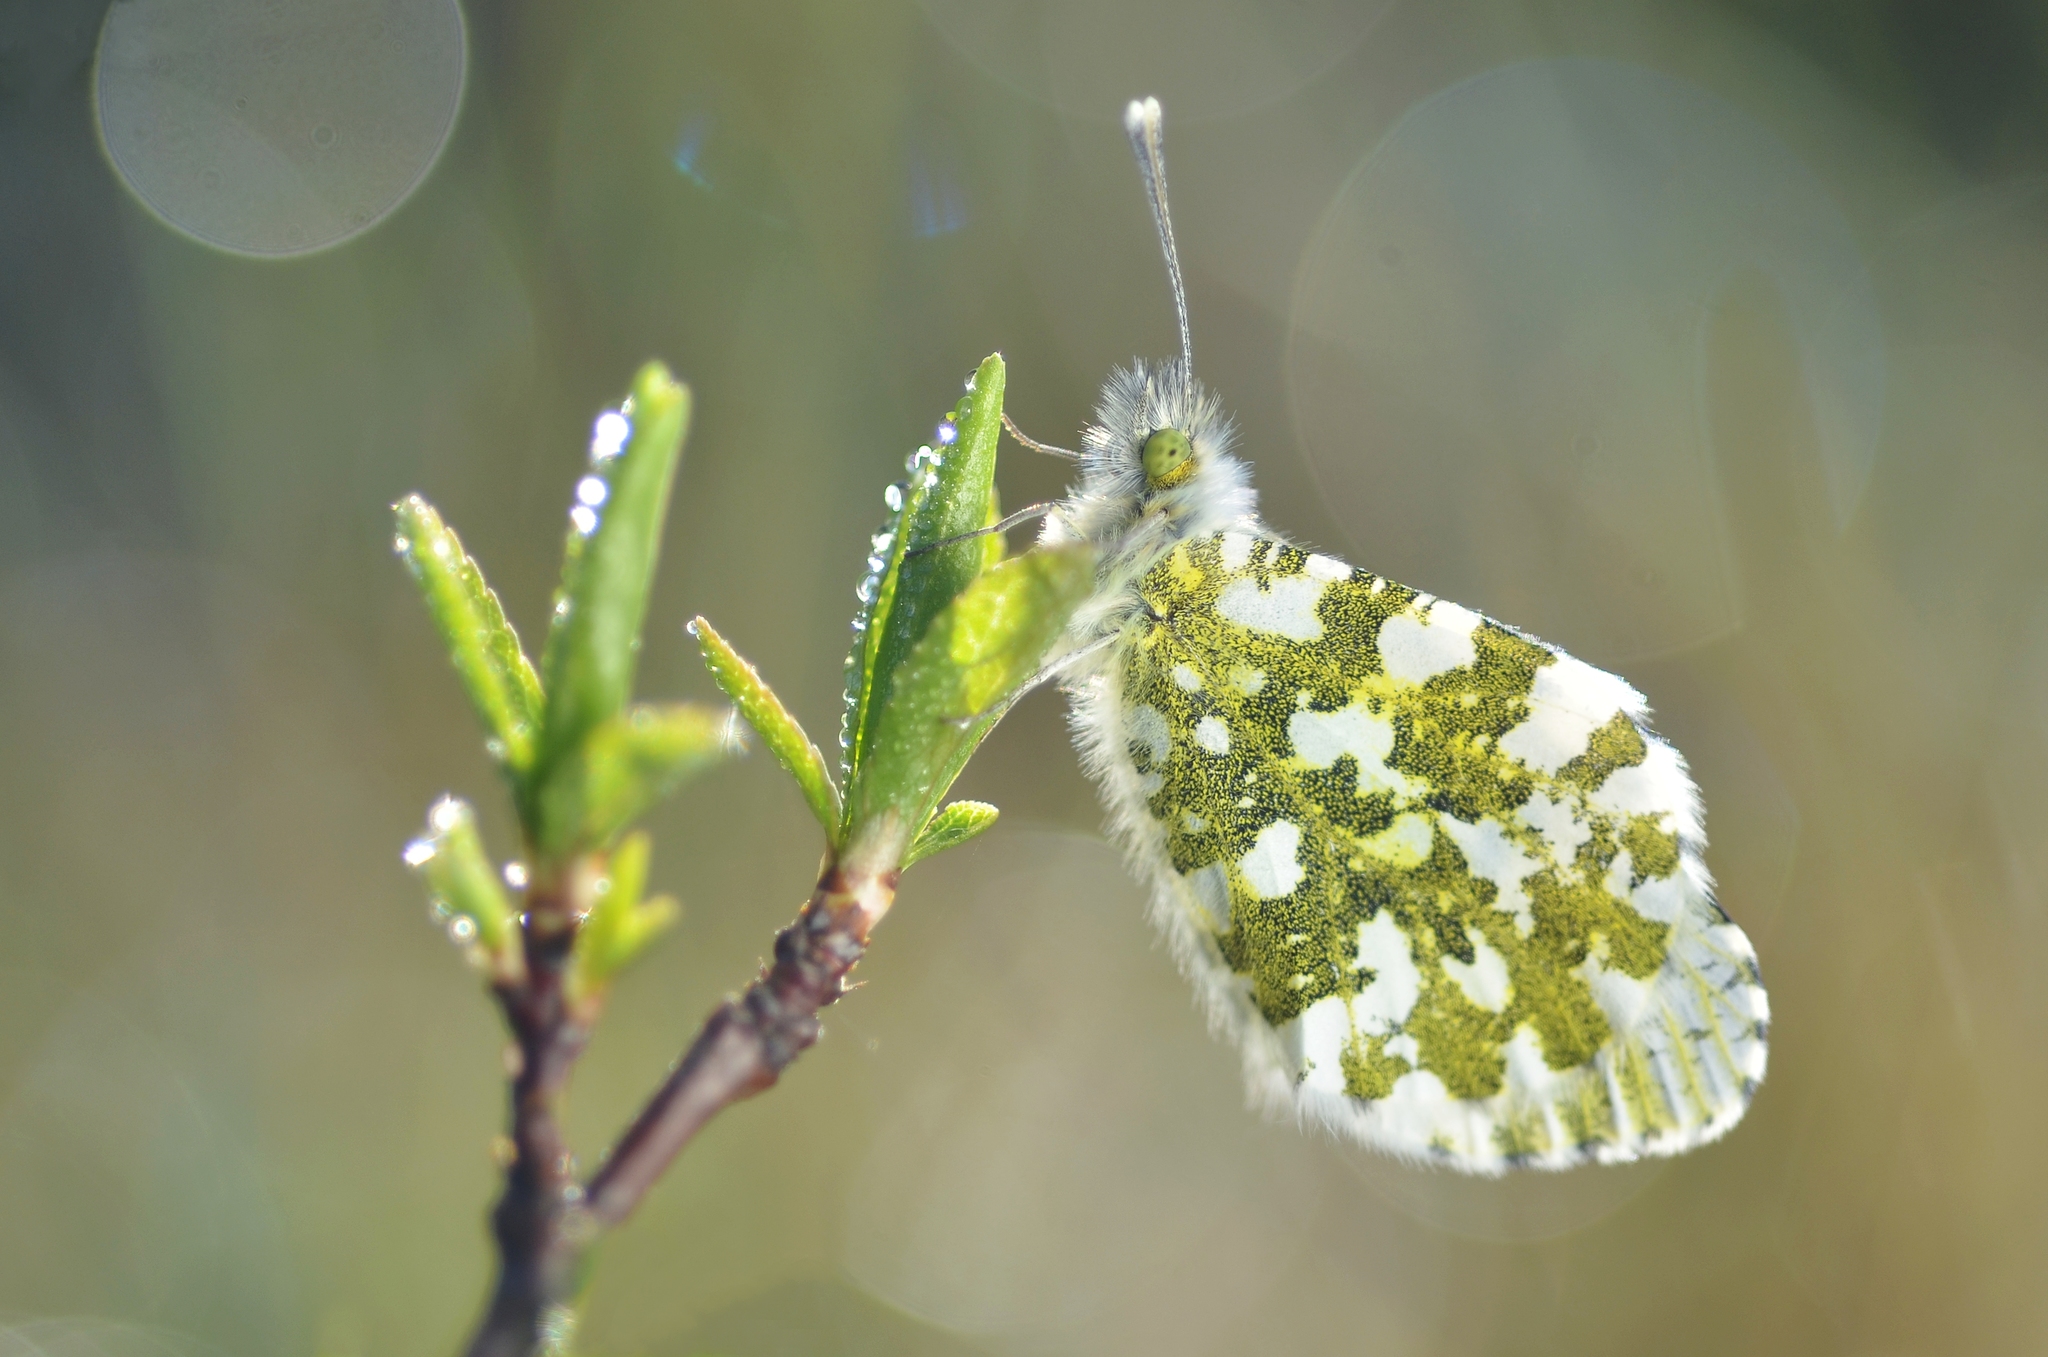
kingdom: Animalia
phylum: Arthropoda
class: Insecta
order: Lepidoptera
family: Pieridae
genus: Anthocharis
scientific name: Anthocharis cardamines
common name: Orange-tip
